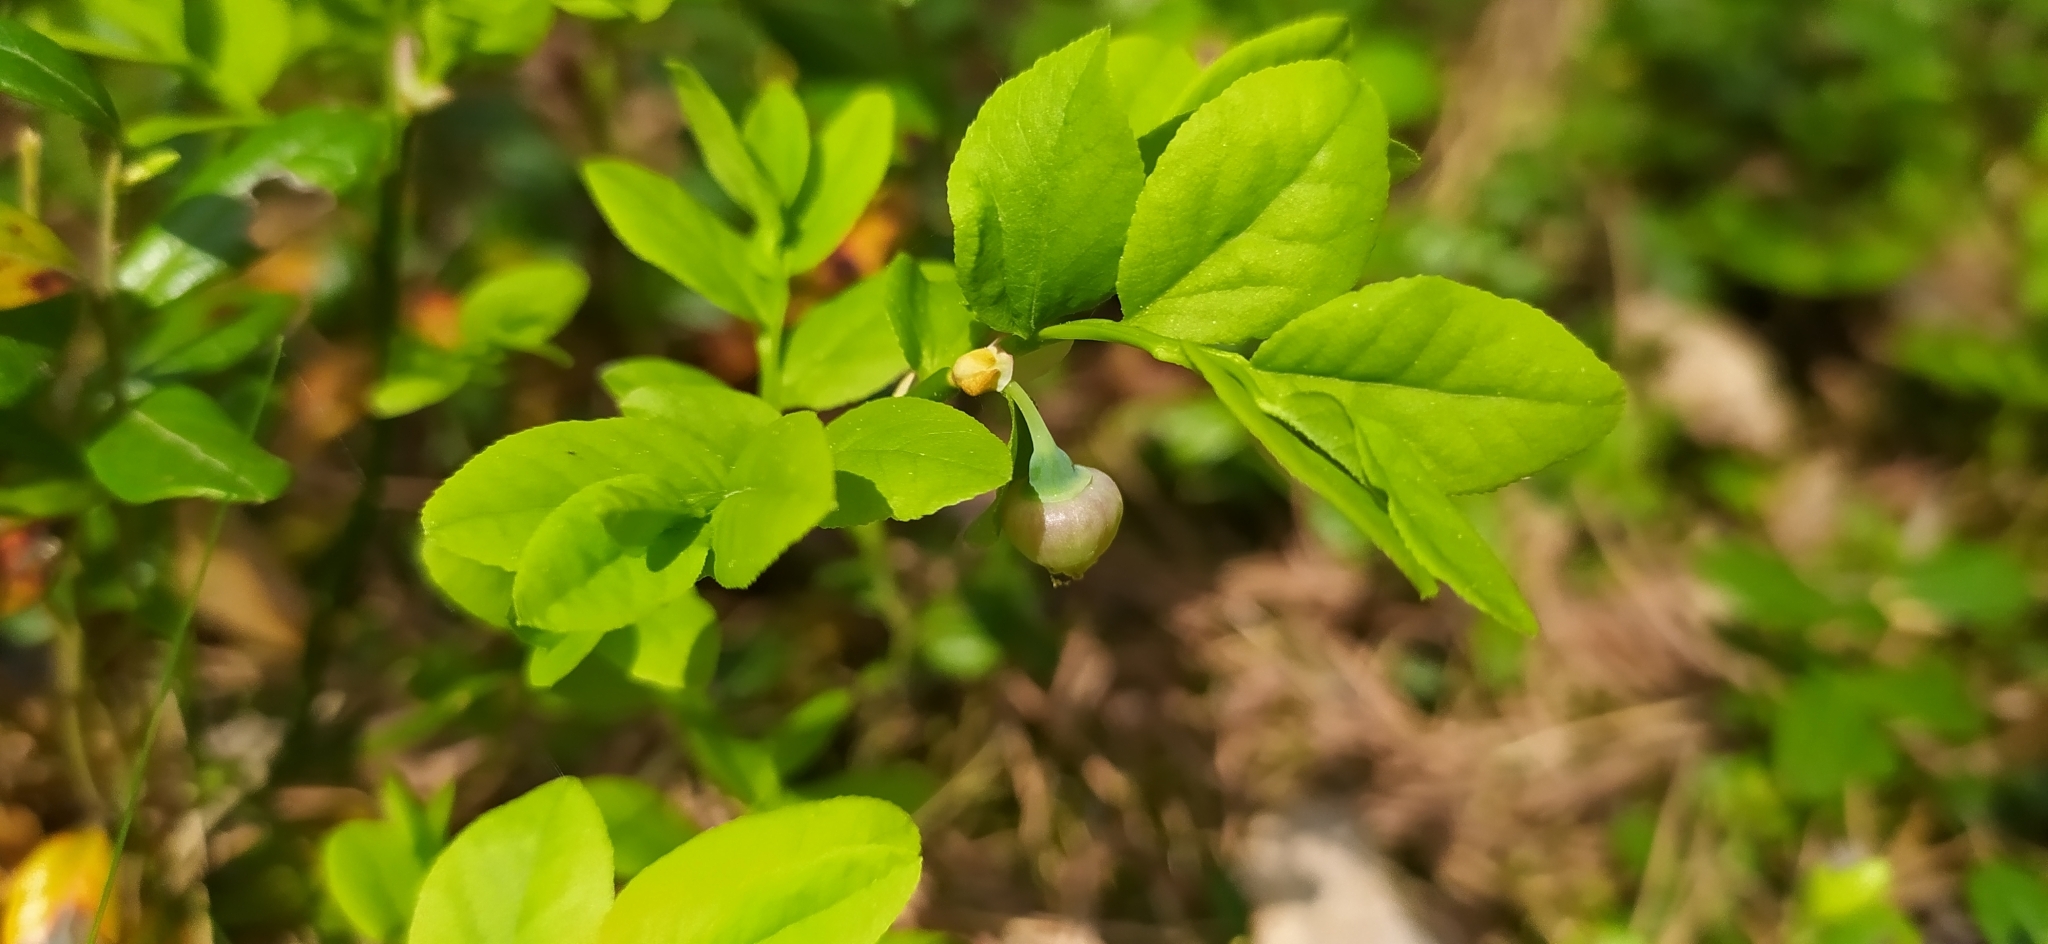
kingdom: Plantae
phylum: Tracheophyta
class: Magnoliopsida
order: Ericales
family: Ericaceae
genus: Vaccinium
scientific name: Vaccinium myrtillus
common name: Bilberry
